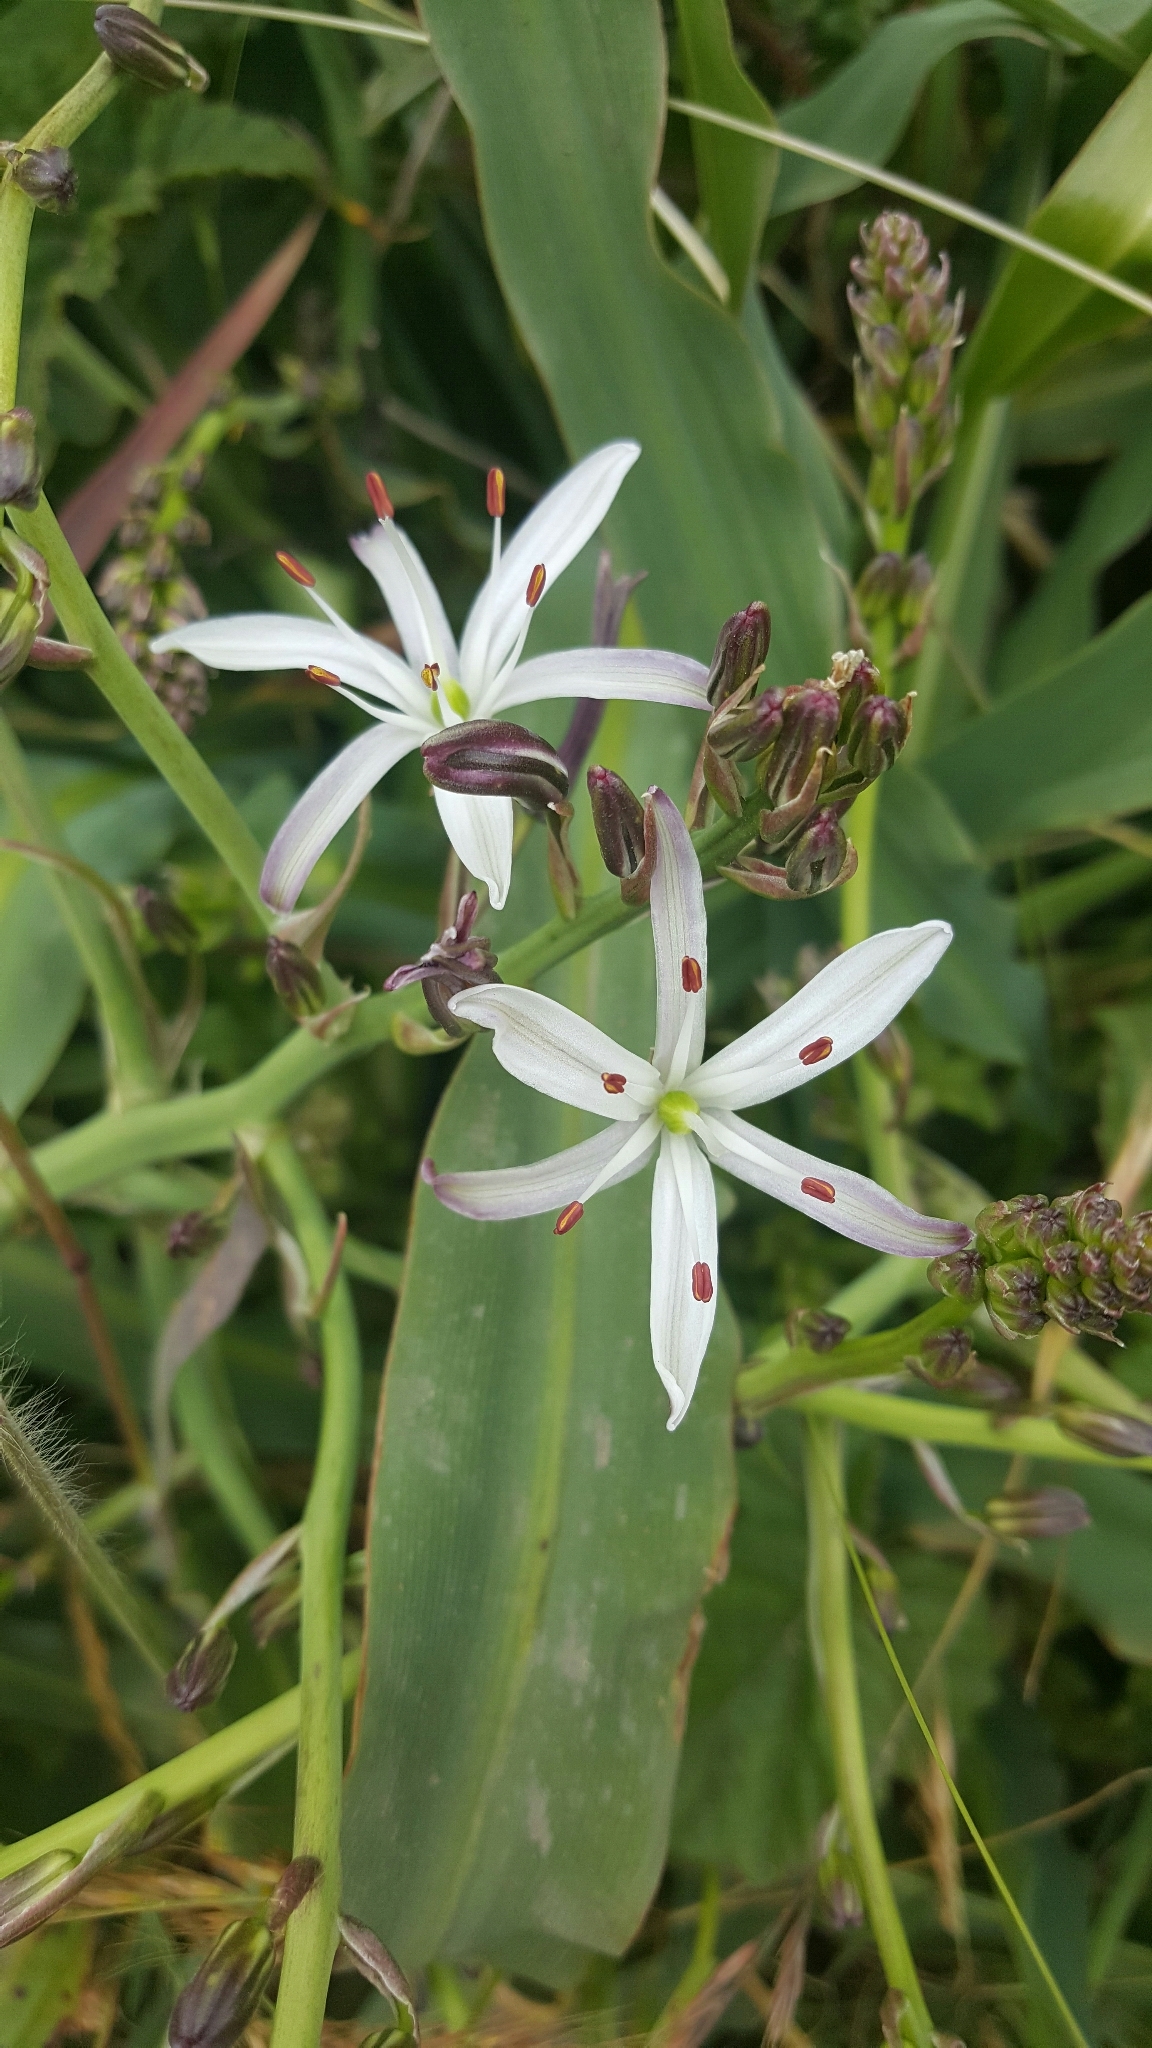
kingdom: Plantae
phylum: Tracheophyta
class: Liliopsida
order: Asparagales
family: Asparagaceae
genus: Chlorogalum
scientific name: Chlorogalum pomeridianum
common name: Amole
